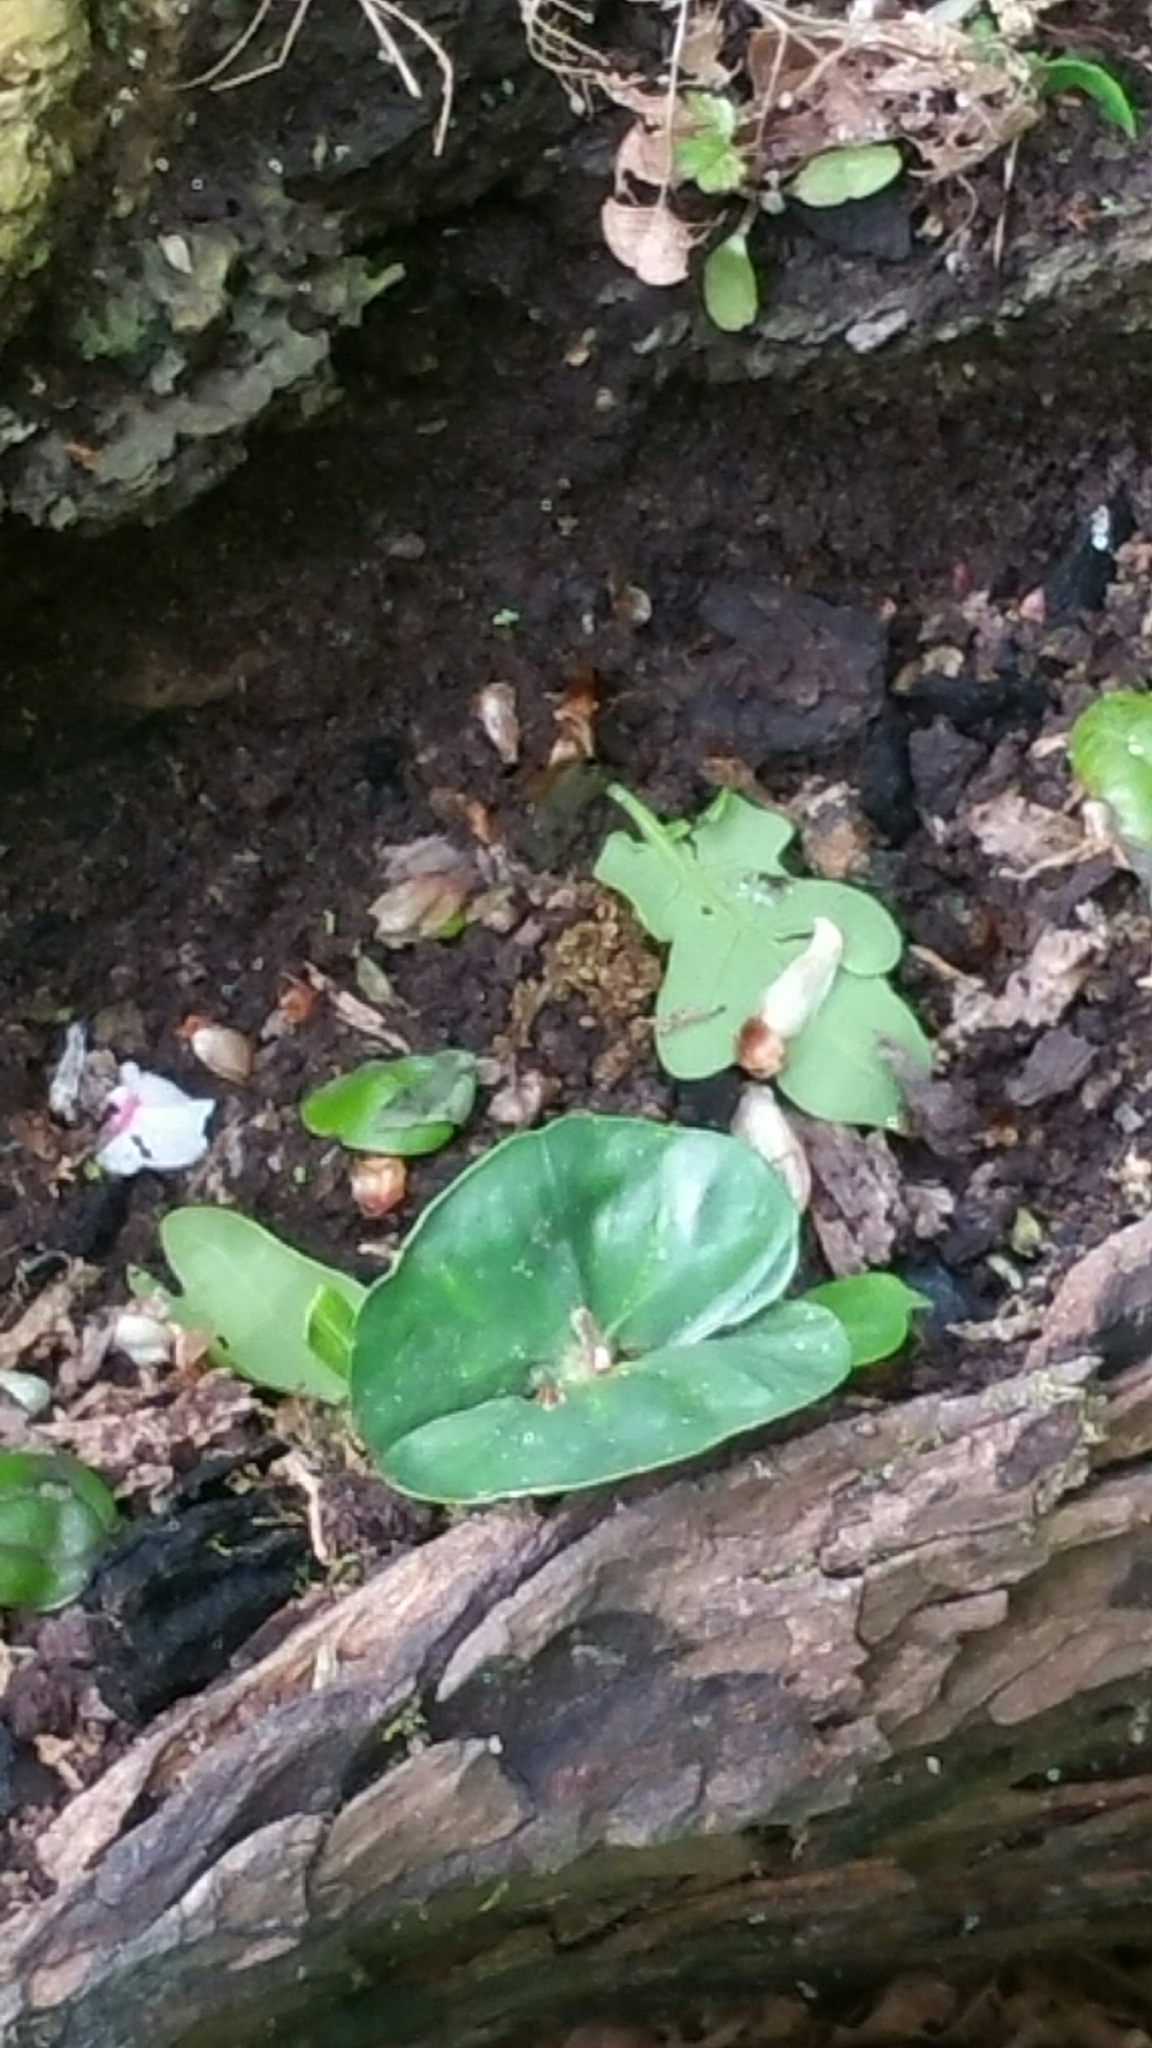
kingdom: Plantae
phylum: Tracheophyta
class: Magnoliopsida
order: Fagales
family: Fagaceae
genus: Fagus
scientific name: Fagus sylvatica
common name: Beech
